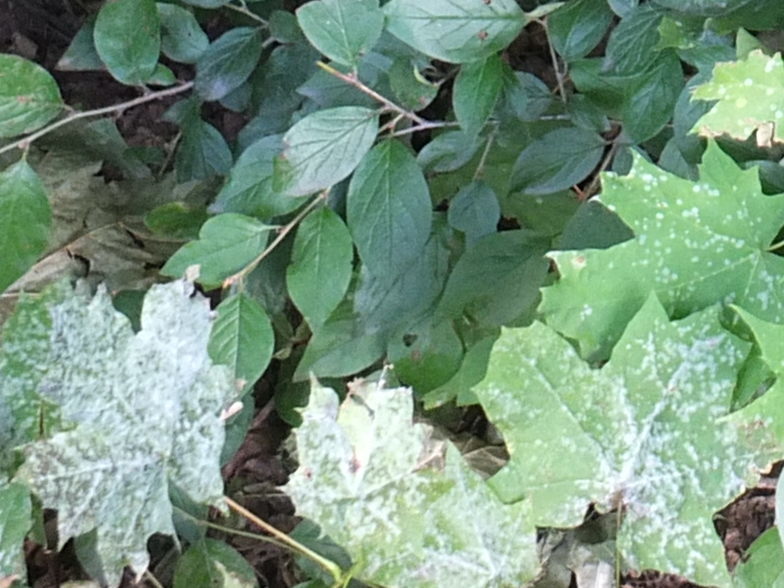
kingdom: Fungi
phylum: Ascomycota
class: Leotiomycetes
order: Helotiales
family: Erysiphaceae
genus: Sawadaea
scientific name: Sawadaea tulasnei
